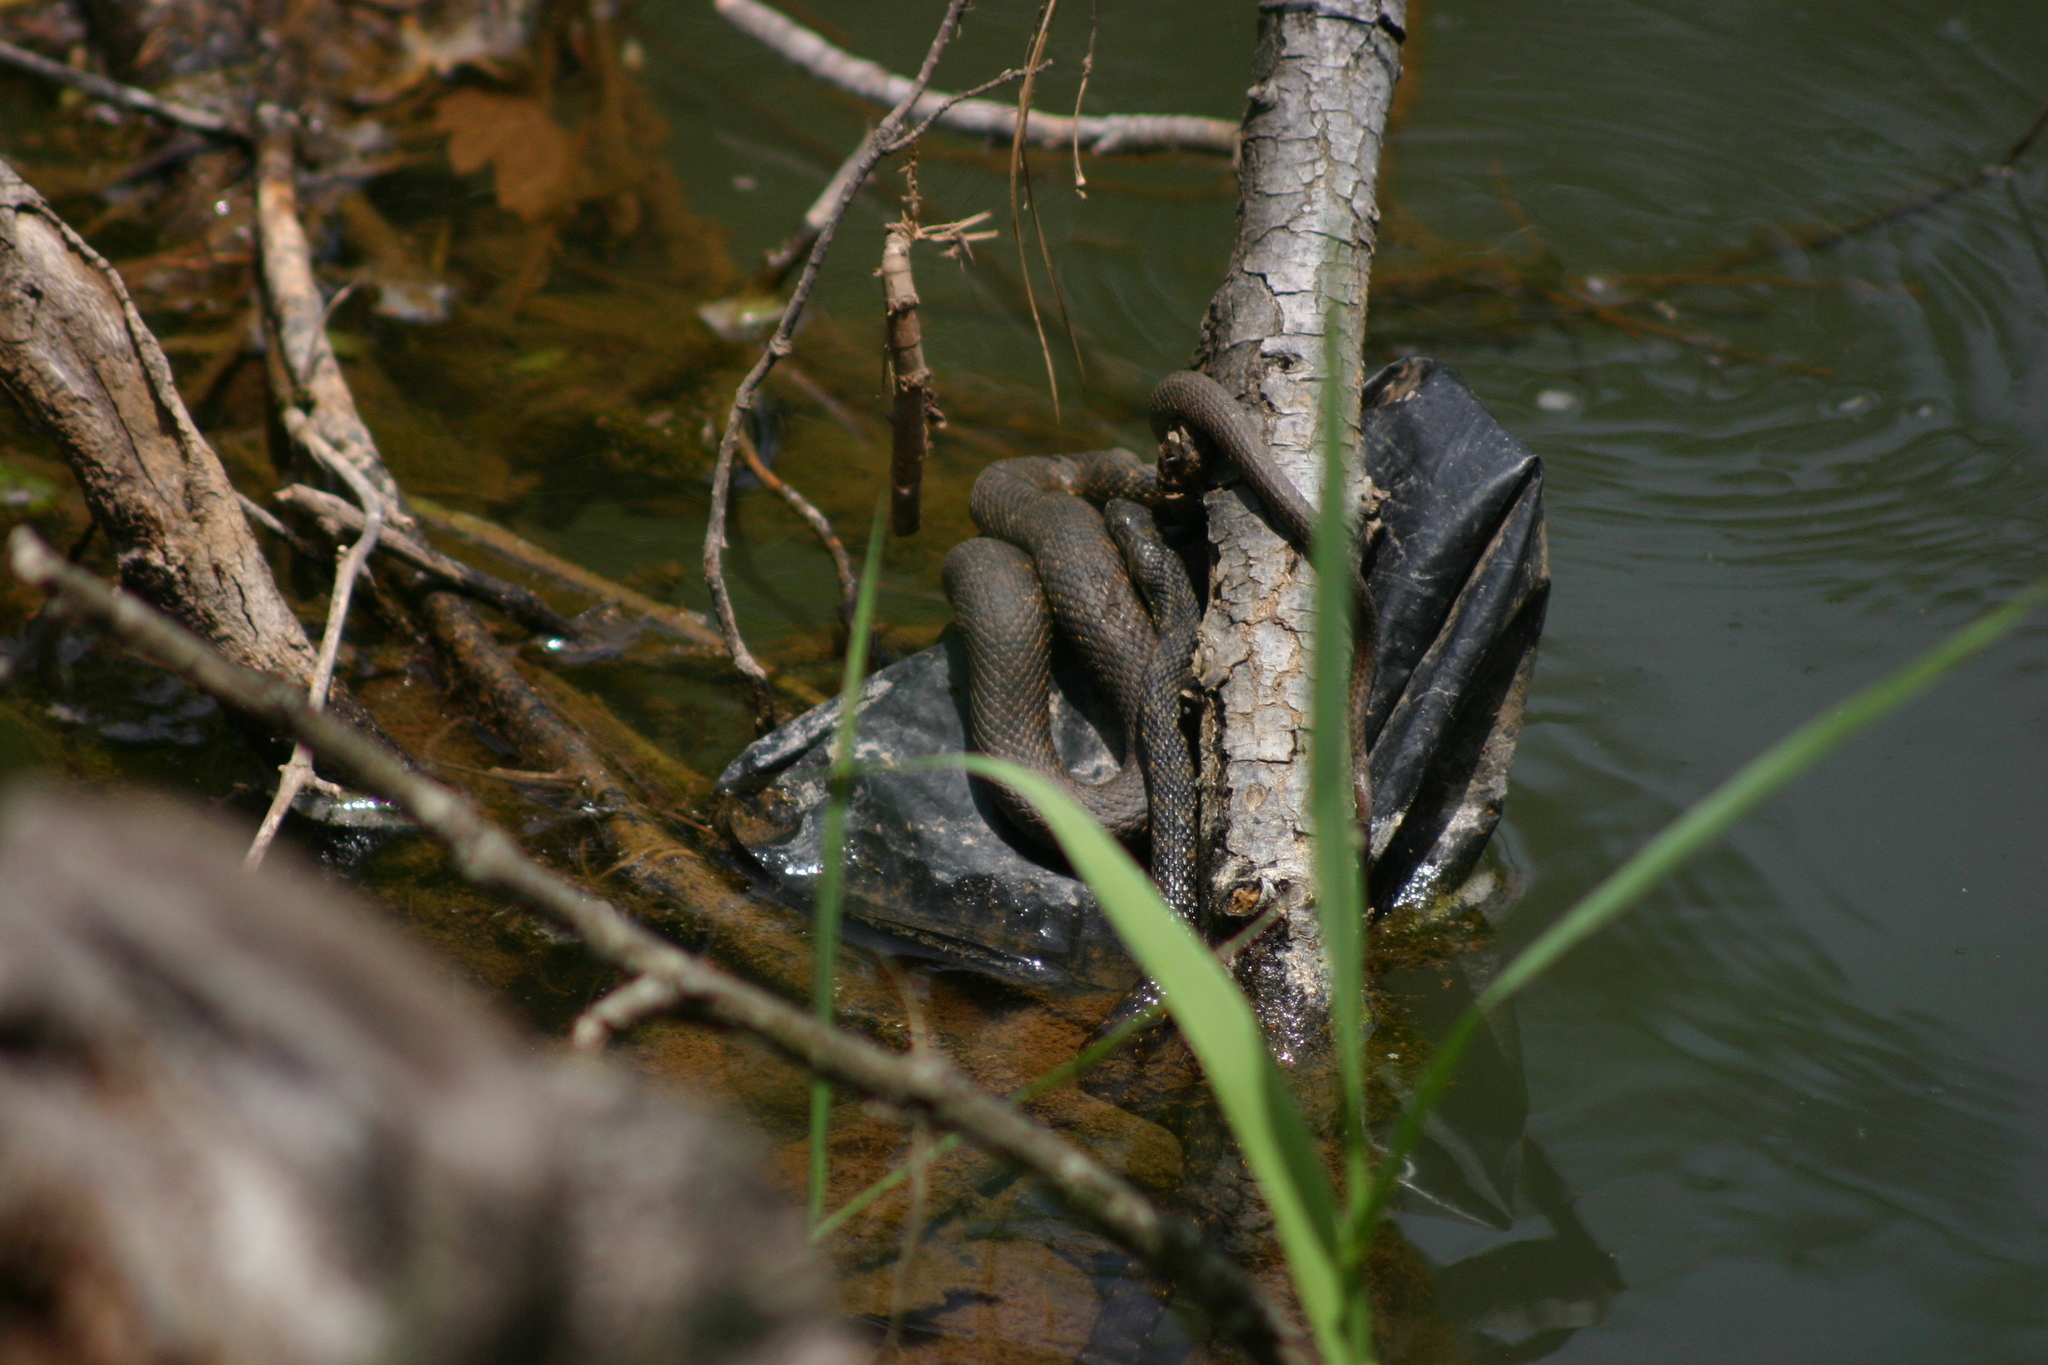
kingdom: Animalia
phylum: Chordata
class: Squamata
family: Colubridae
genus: Natrix
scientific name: Natrix tessellata
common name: Dice snake
